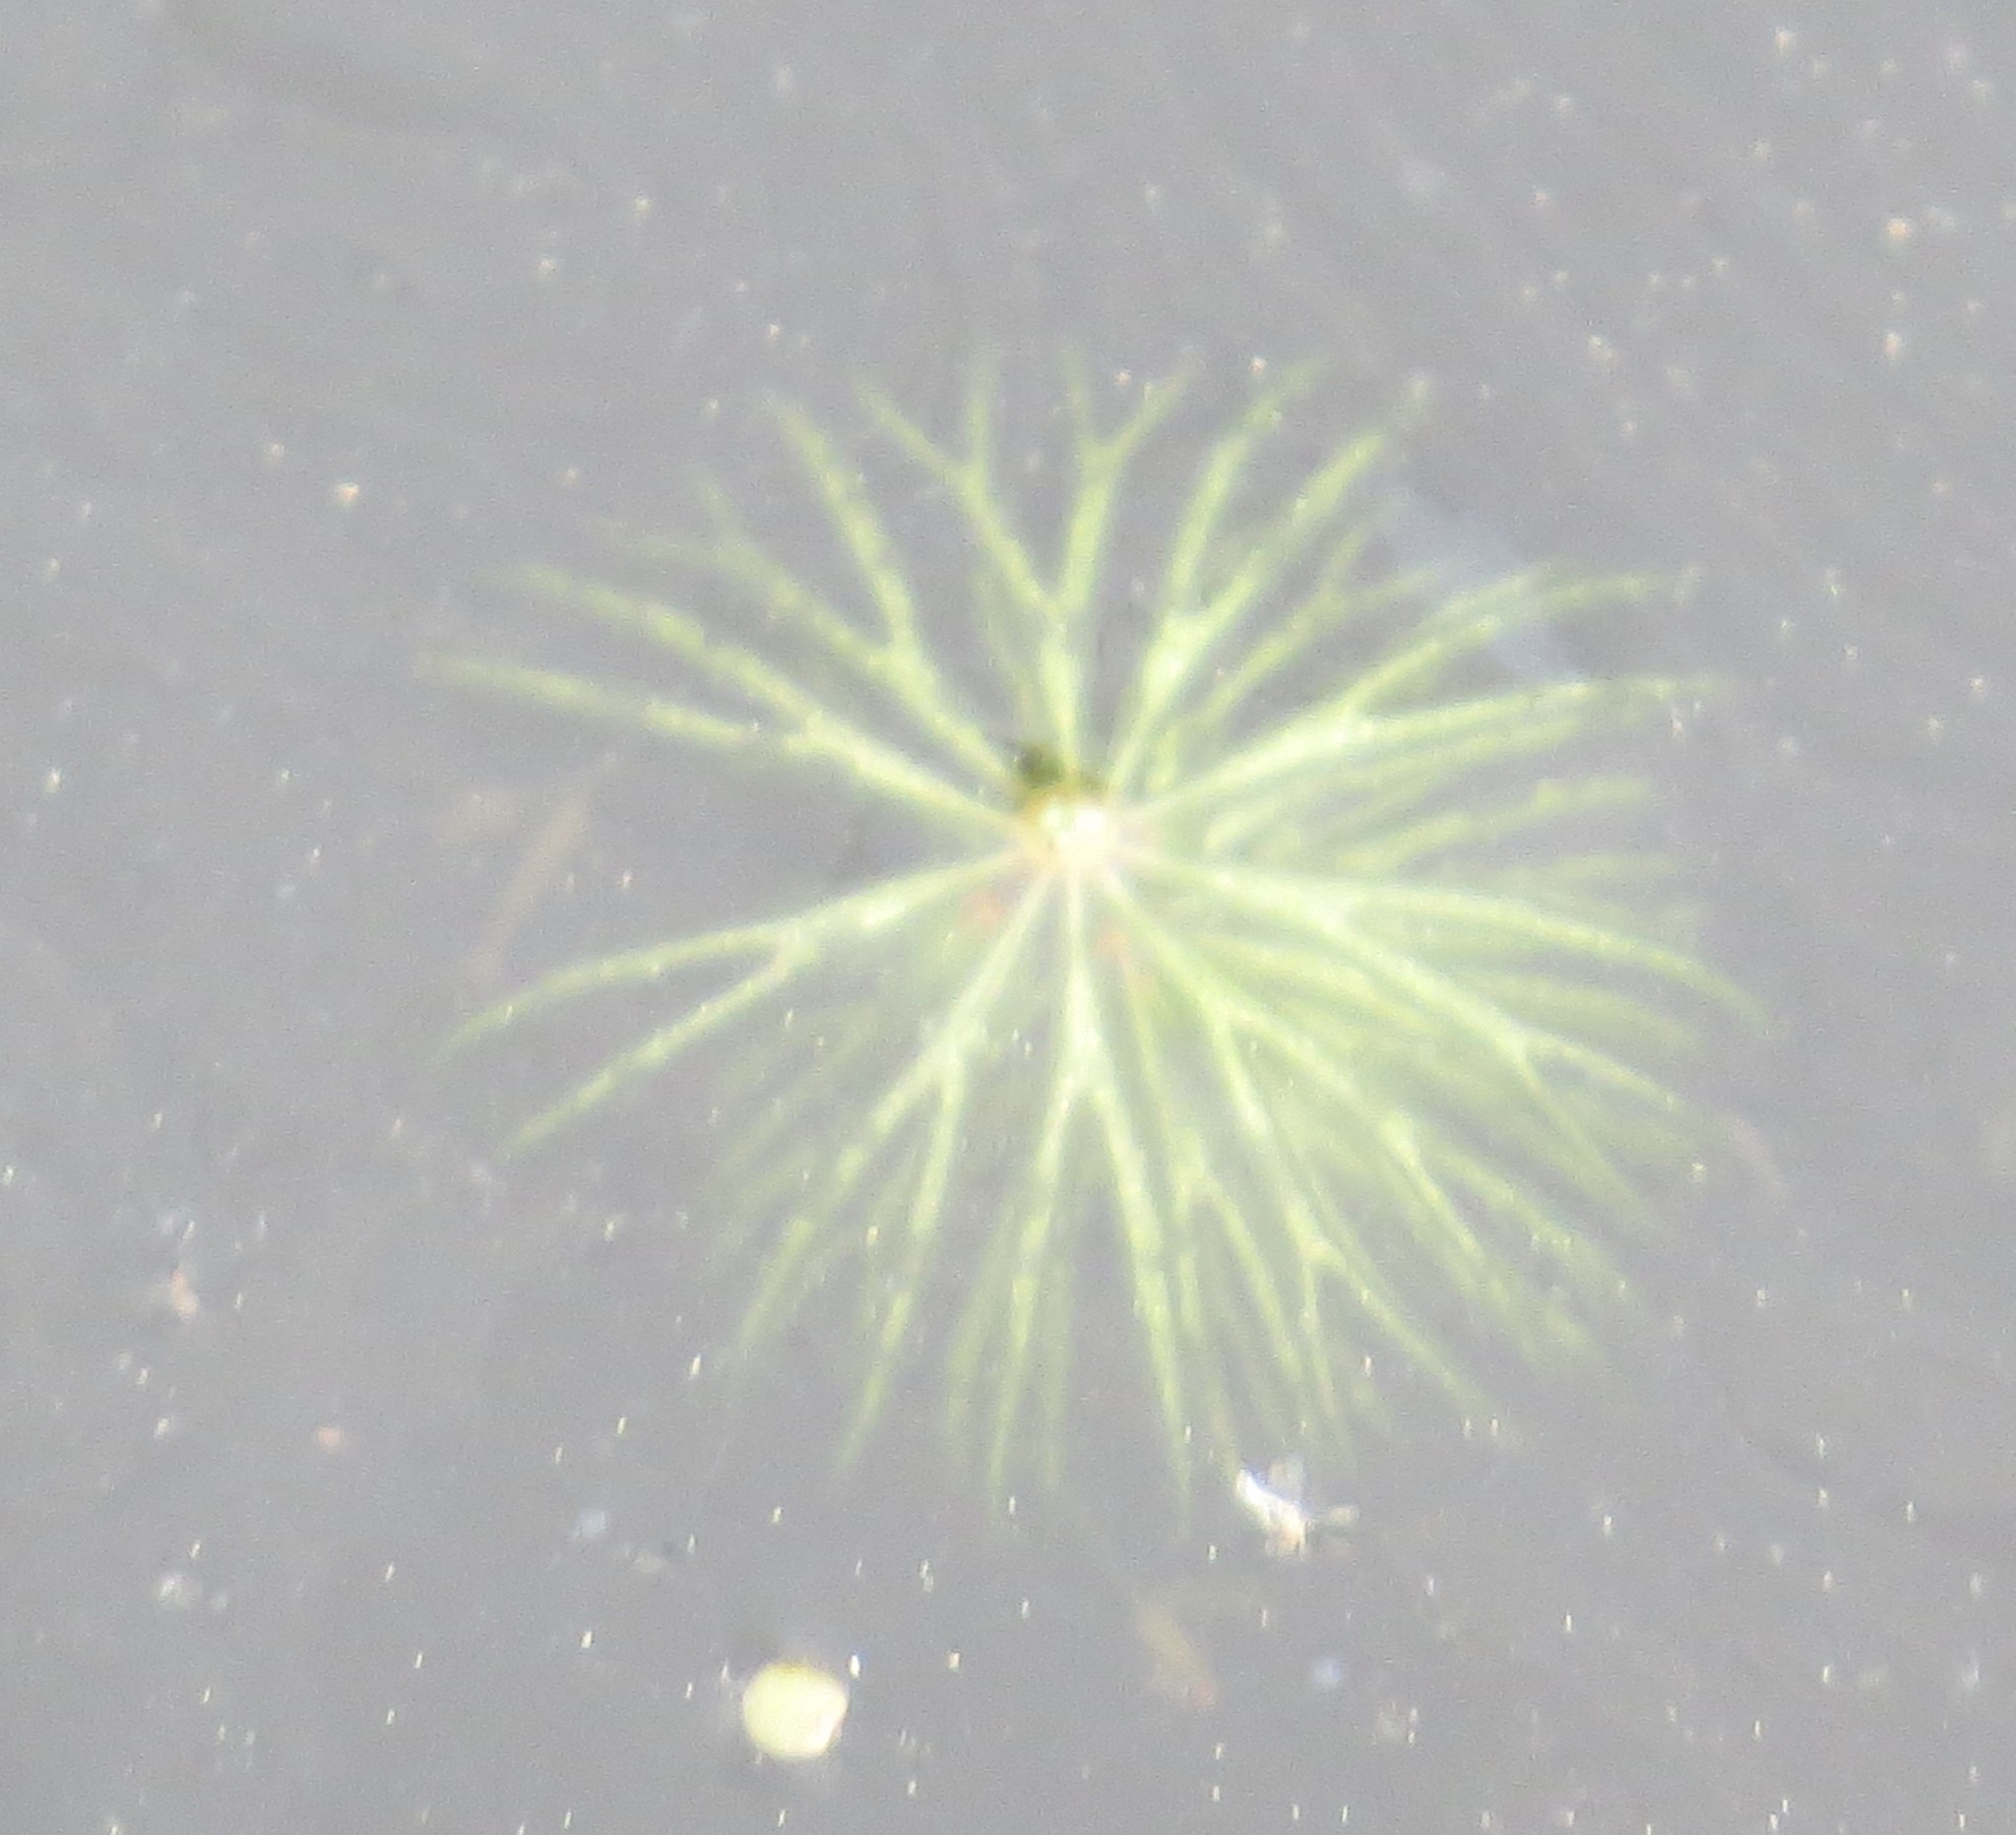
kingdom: Plantae
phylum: Tracheophyta
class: Magnoliopsida
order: Ceratophyllales
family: Ceratophyllaceae
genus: Ceratophyllum
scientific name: Ceratophyllum demersum
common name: Rigid hornwort
